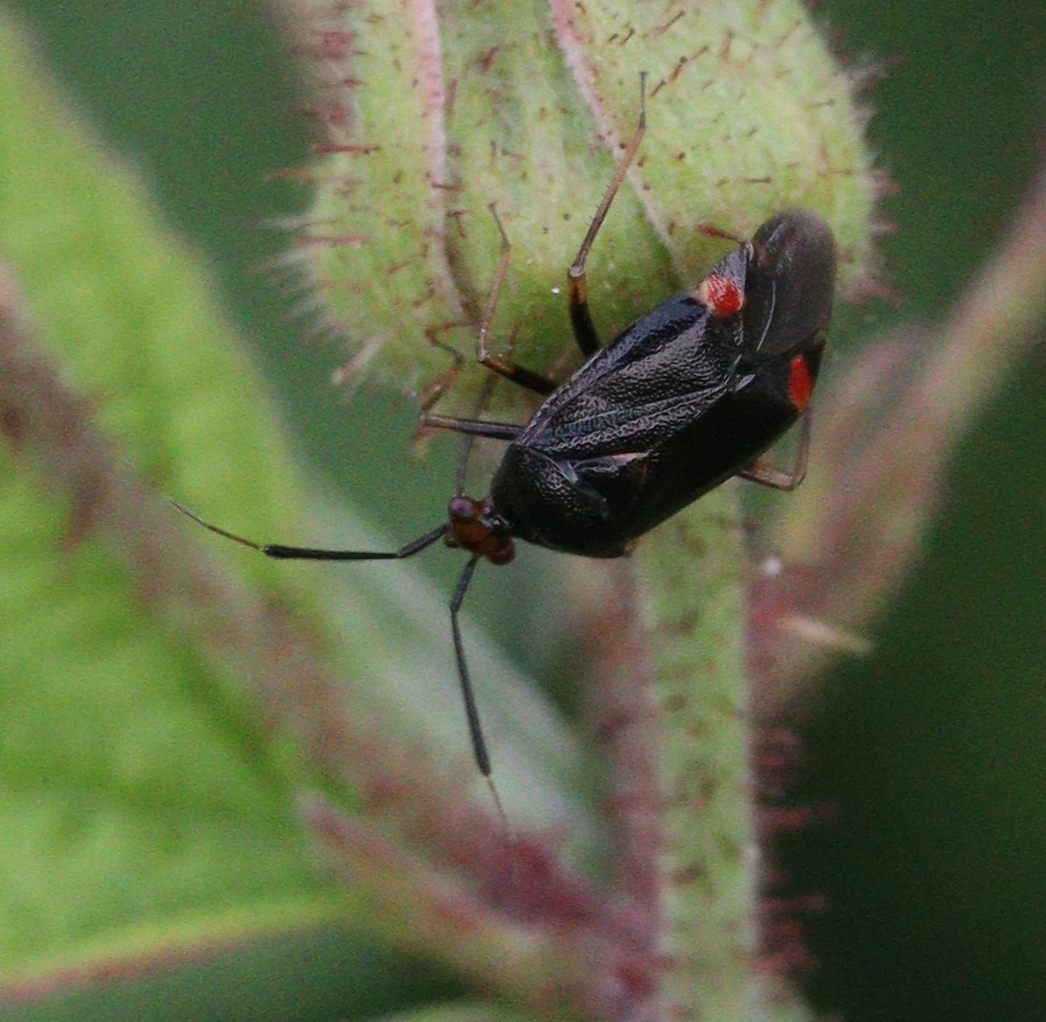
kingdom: Animalia
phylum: Arthropoda
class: Insecta
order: Hemiptera
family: Miridae
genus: Deraeocoris
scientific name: Deraeocoris ruber
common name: Plant bug
